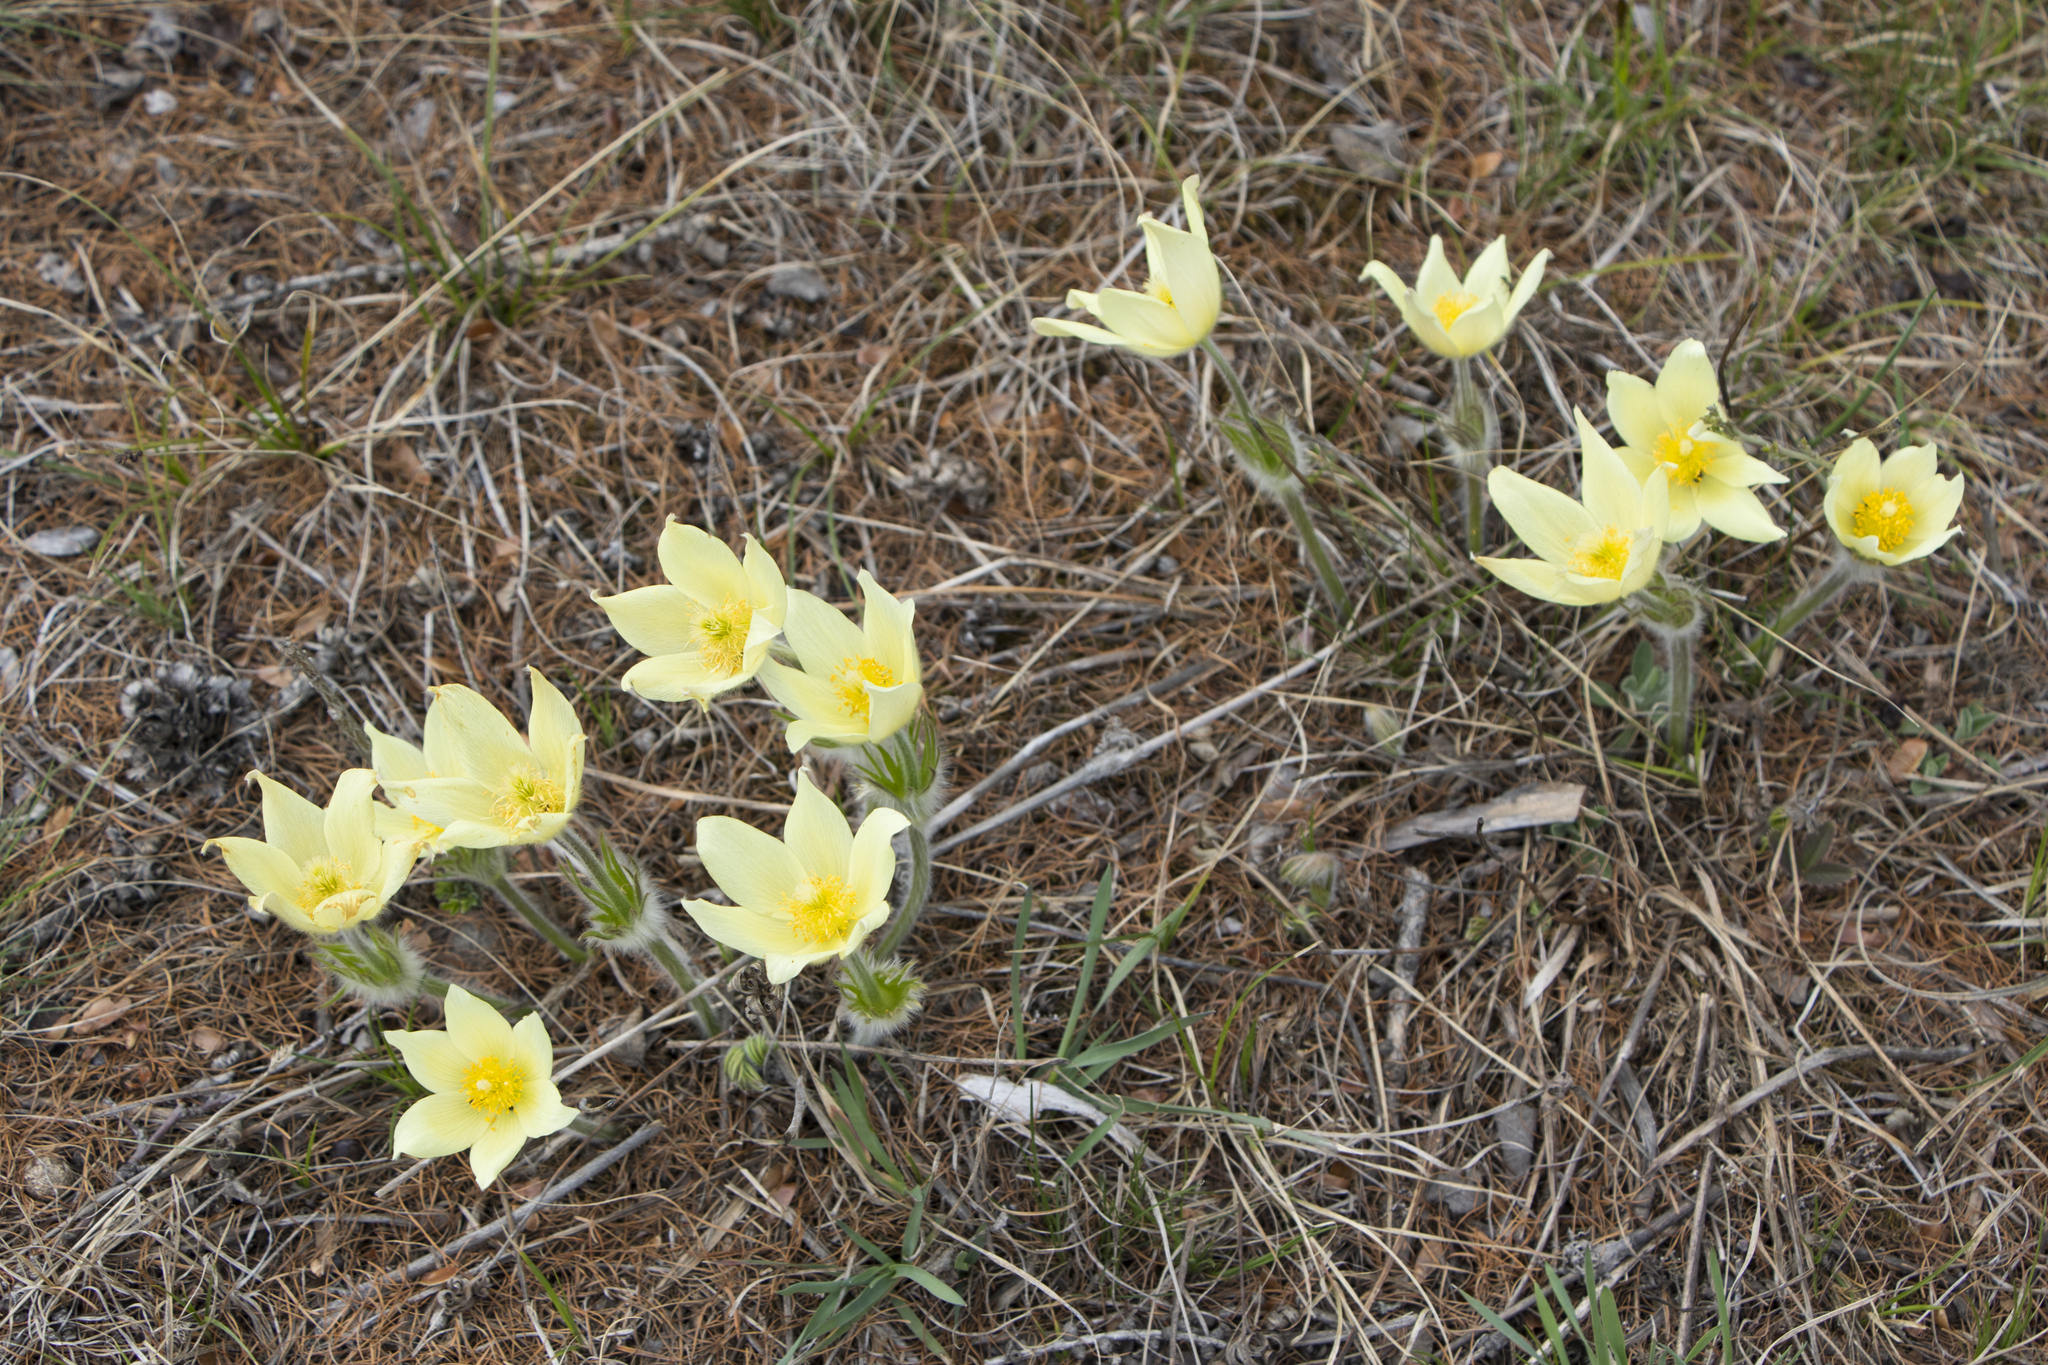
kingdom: Plantae
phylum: Tracheophyta
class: Magnoliopsida
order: Ranunculales
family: Ranunculaceae
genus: Pulsatilla
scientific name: Pulsatilla patens
